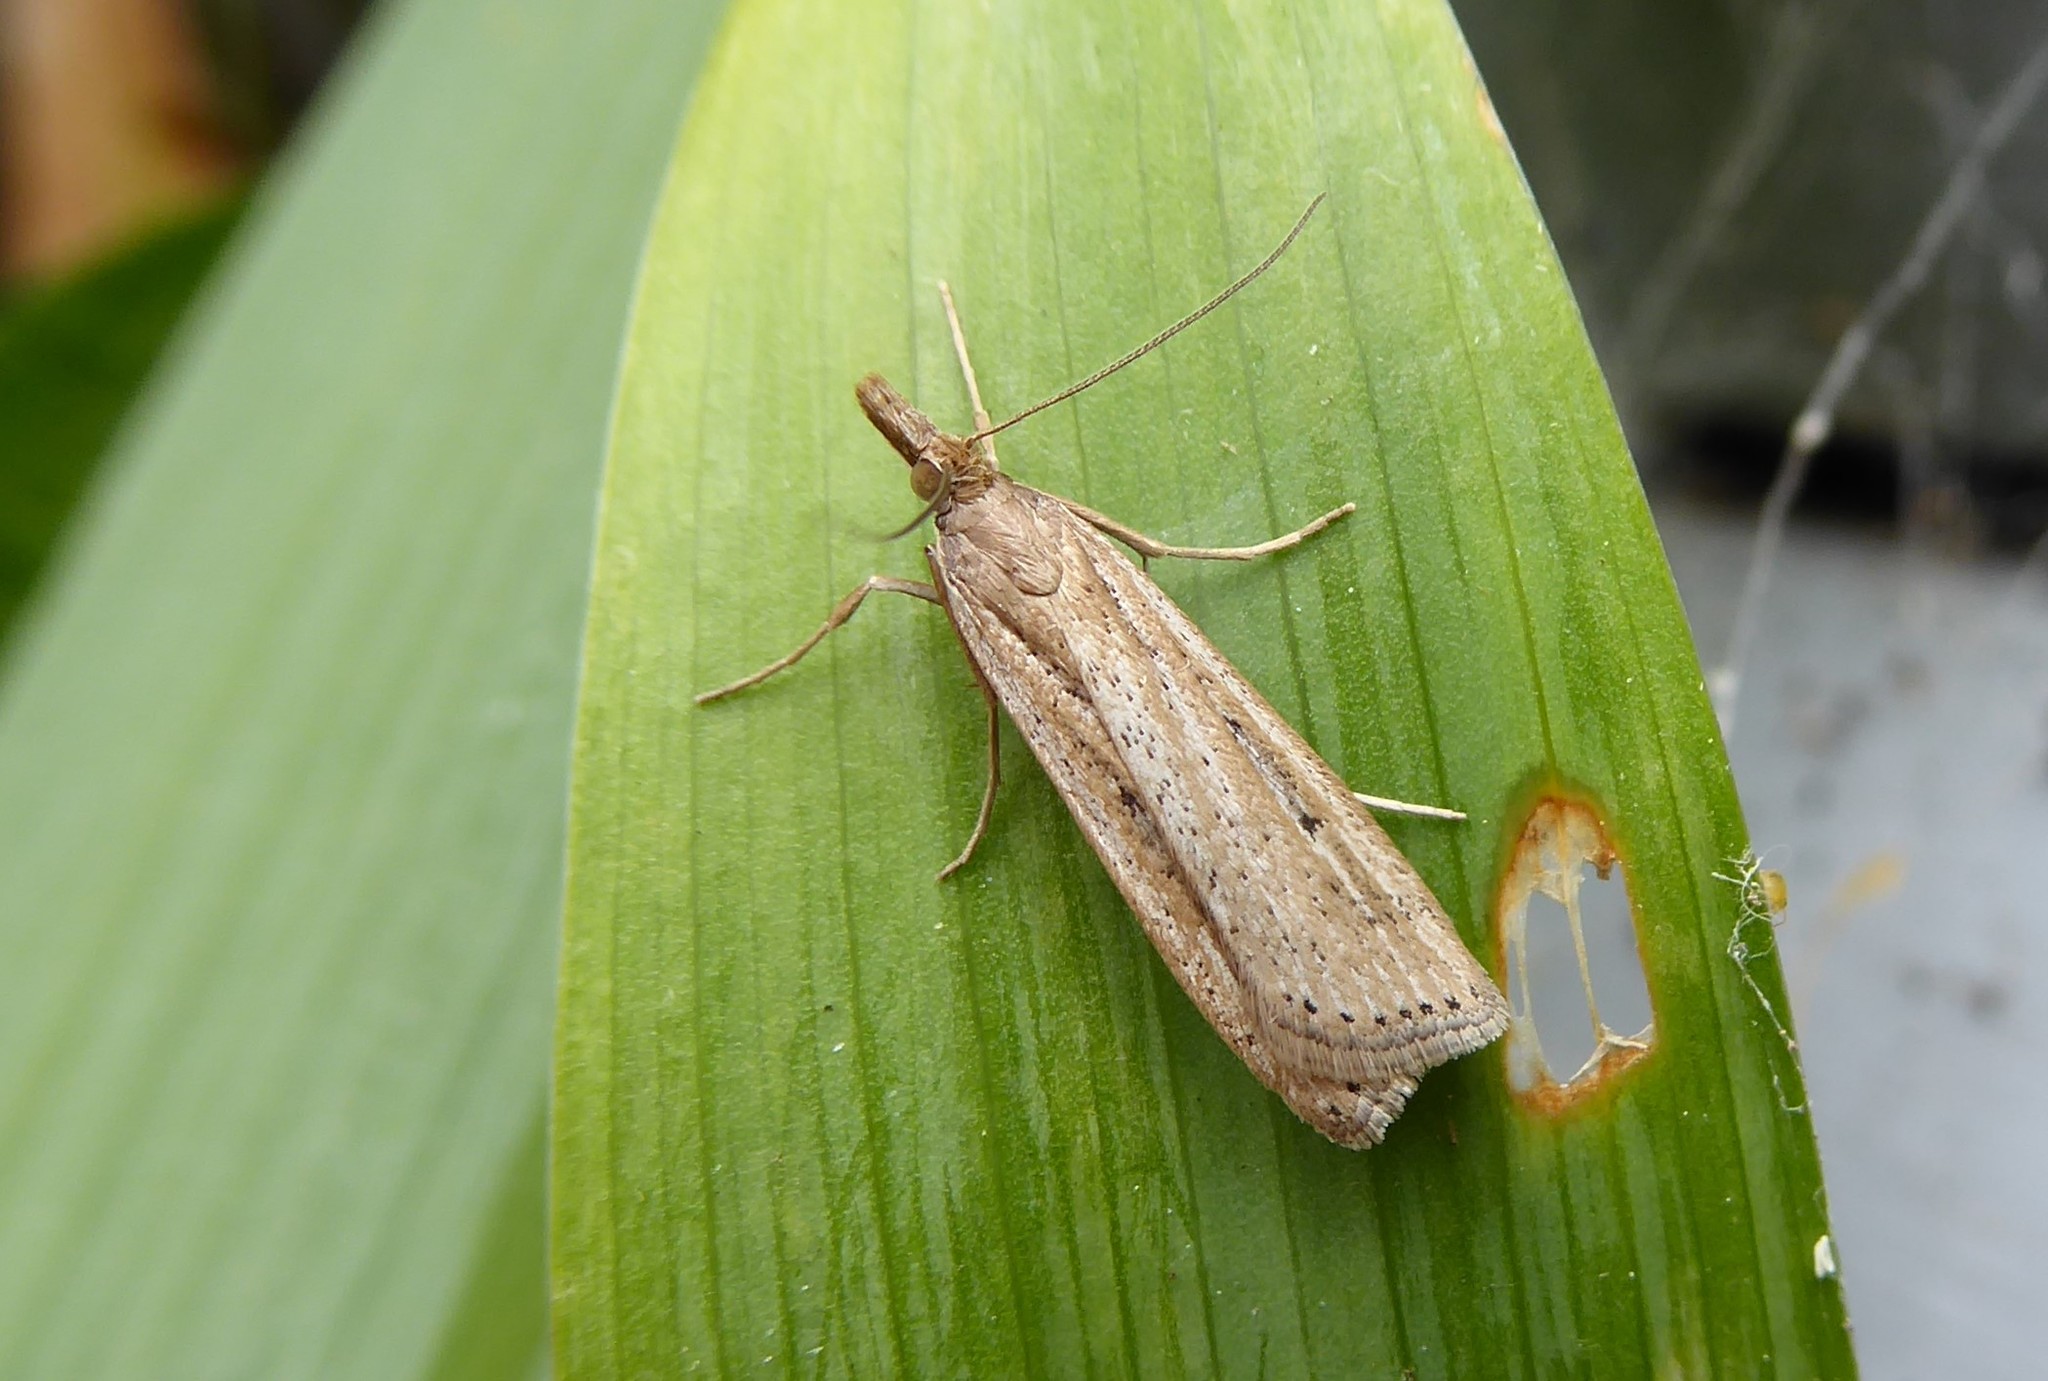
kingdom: Animalia
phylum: Arthropoda
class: Insecta
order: Lepidoptera
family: Crambidae
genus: Eudonia
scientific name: Eudonia sabulosella
